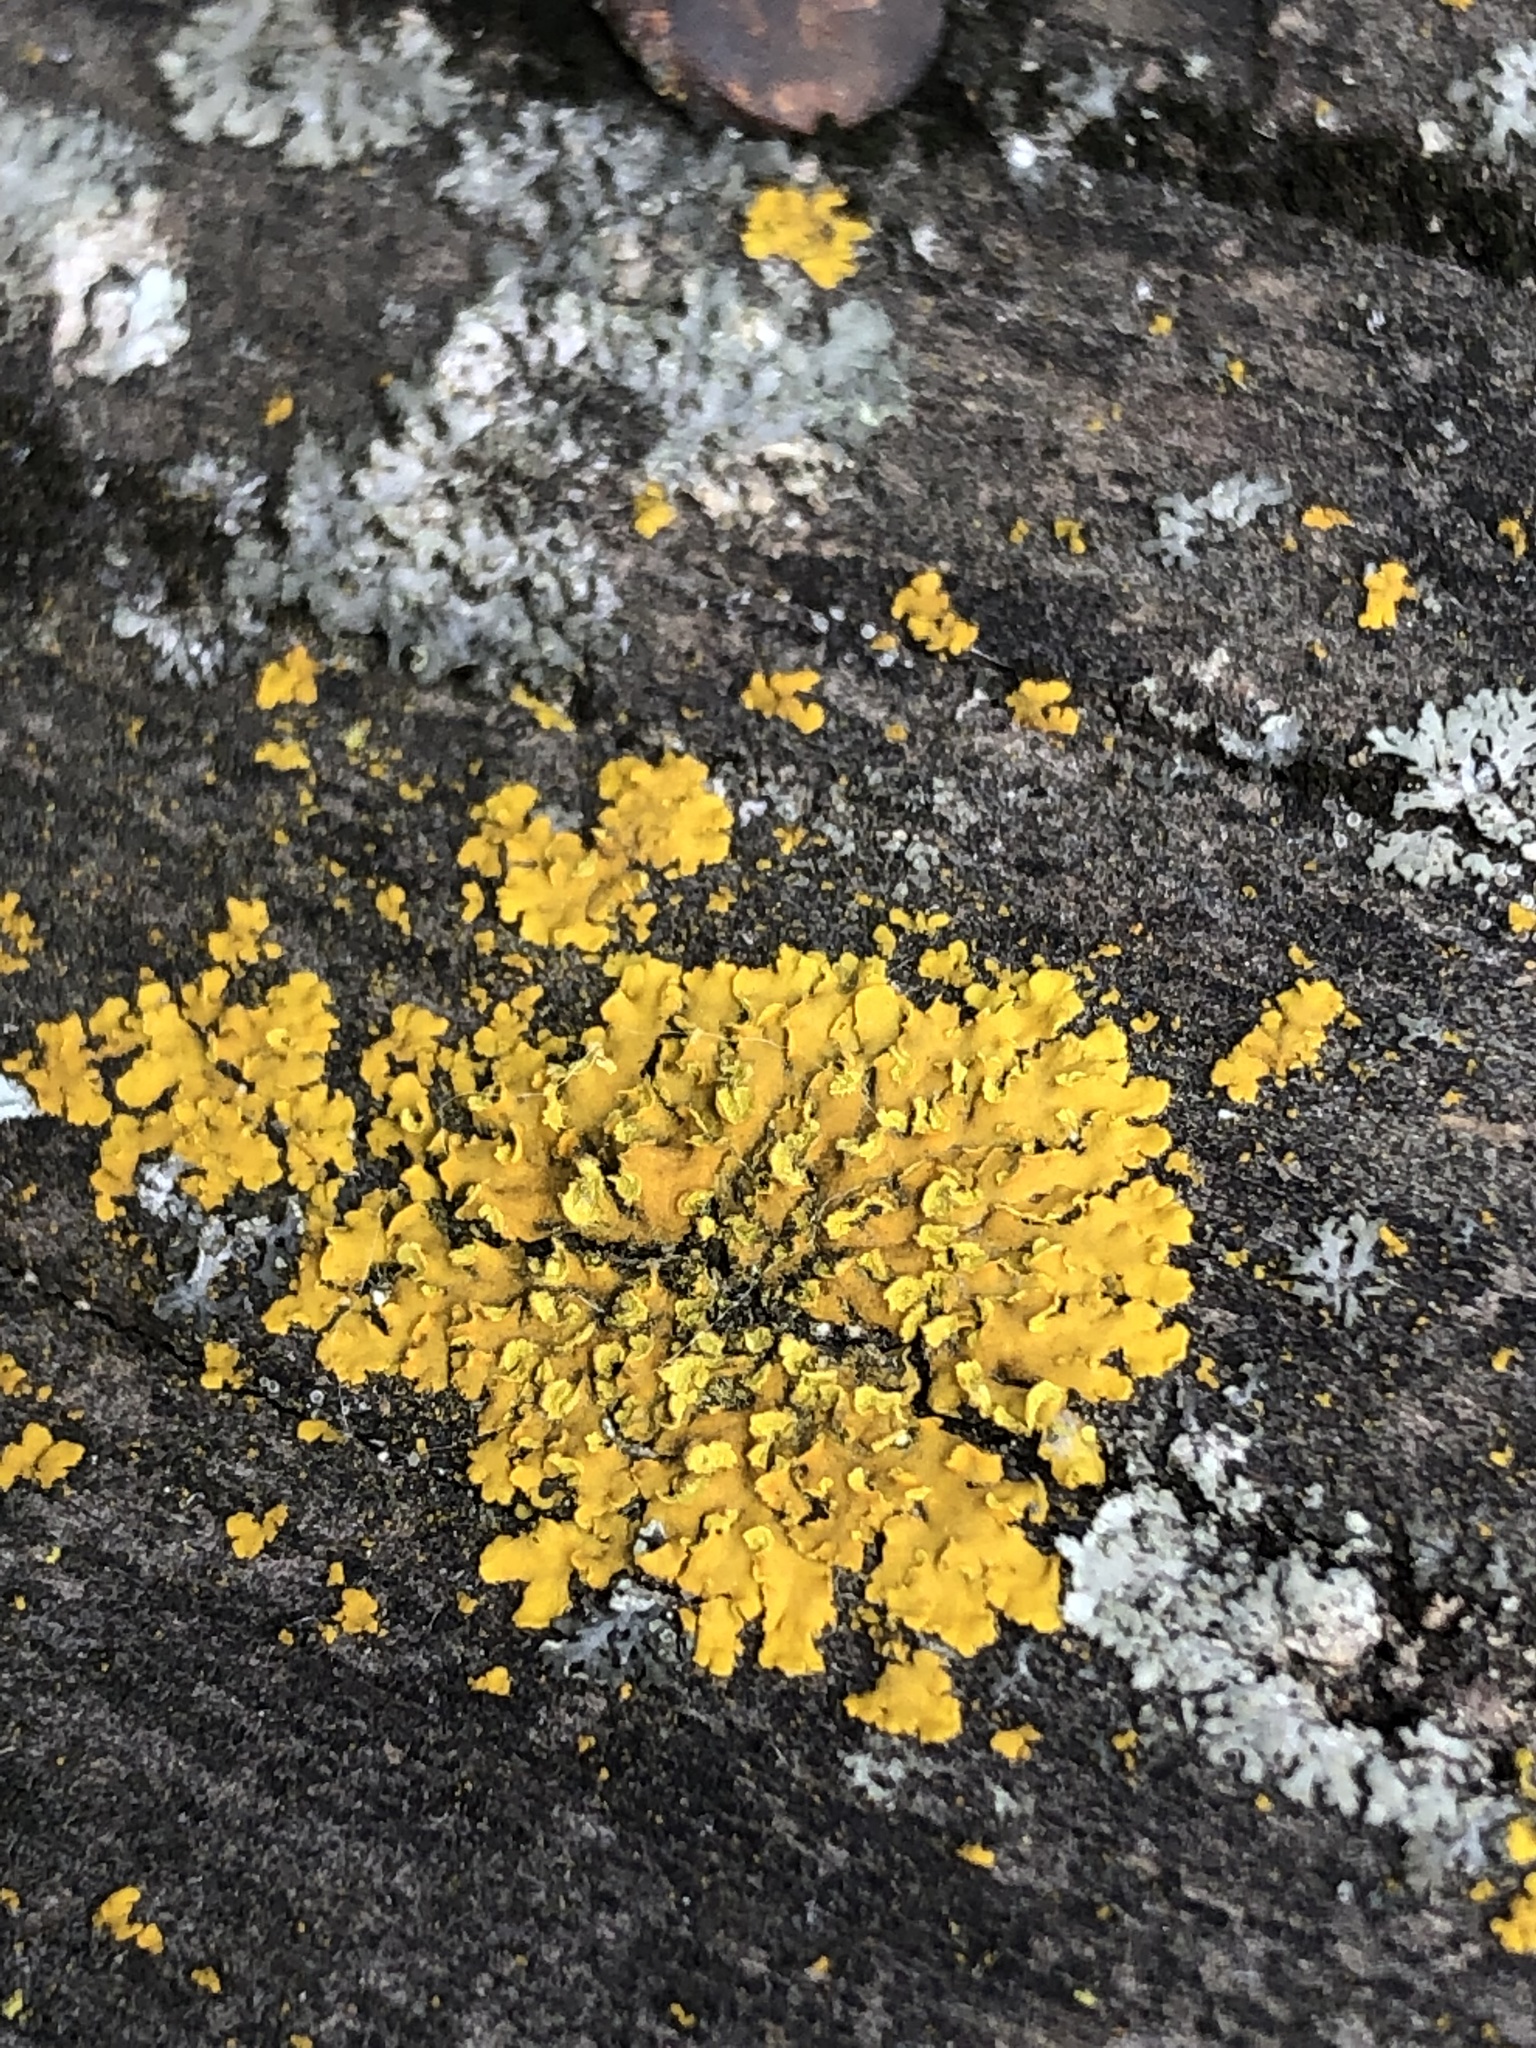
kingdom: Fungi
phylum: Ascomycota
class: Lecanoromycetes
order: Teloschistales
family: Teloschistaceae
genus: Oxneria
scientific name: Oxneria fallax
